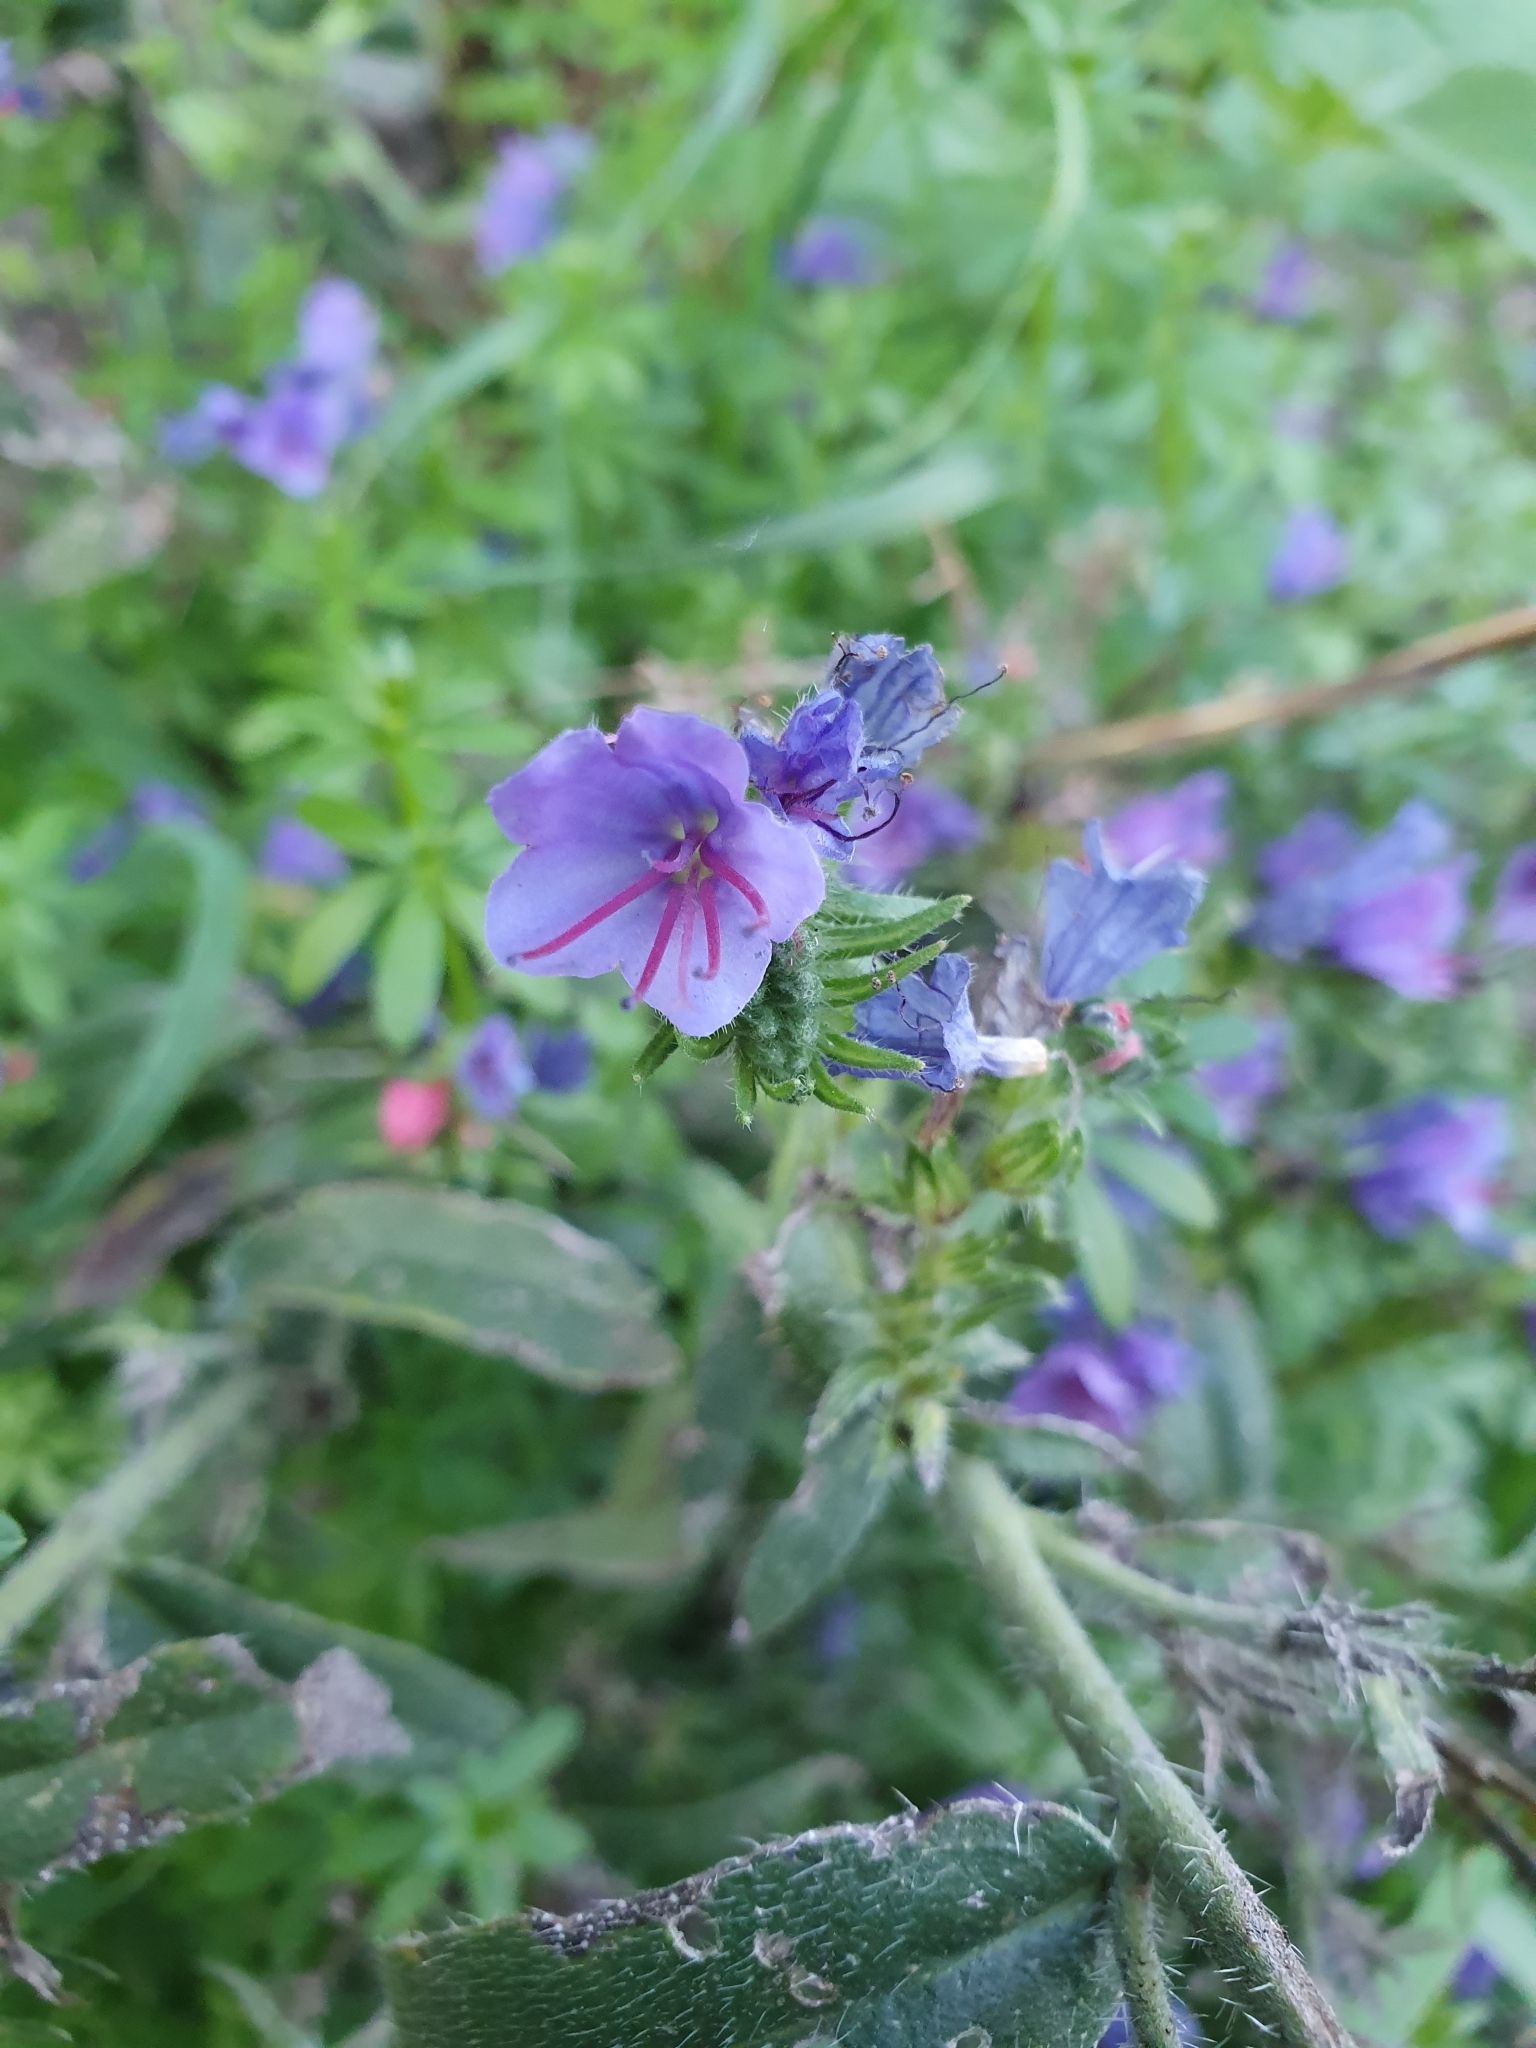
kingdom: Plantae
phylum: Tracheophyta
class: Magnoliopsida
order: Boraginales
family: Boraginaceae
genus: Echium
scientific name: Echium vulgare
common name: Common viper's bugloss
